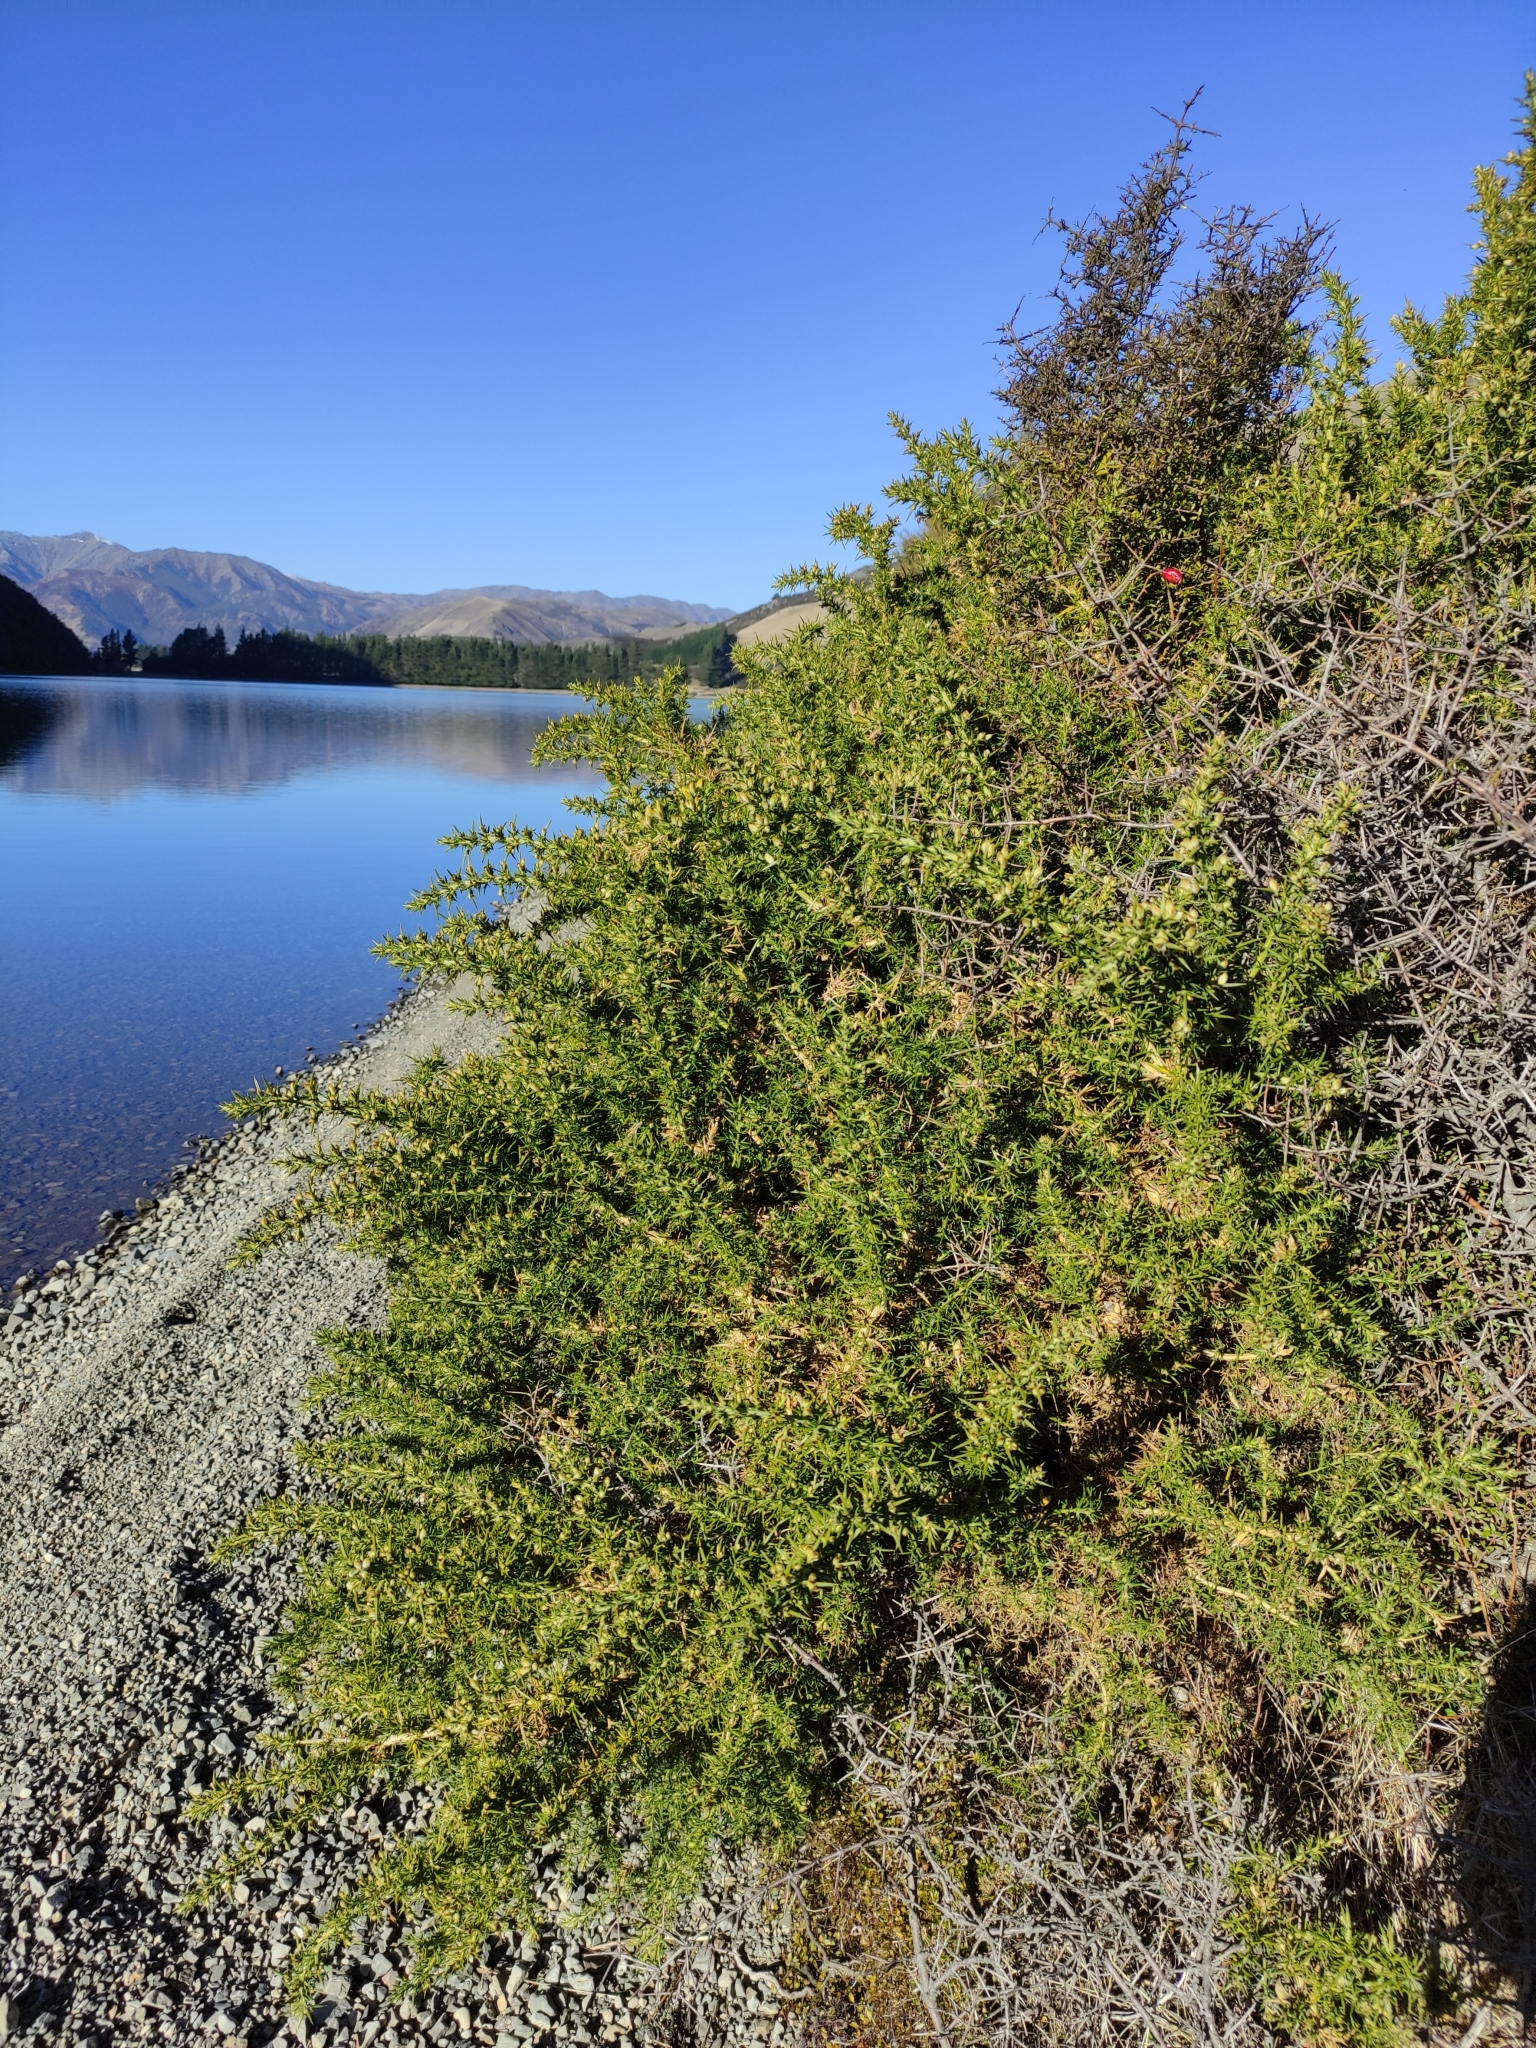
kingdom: Plantae
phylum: Tracheophyta
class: Magnoliopsida
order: Fabales
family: Fabaceae
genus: Ulex
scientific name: Ulex europaeus
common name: Common gorse
